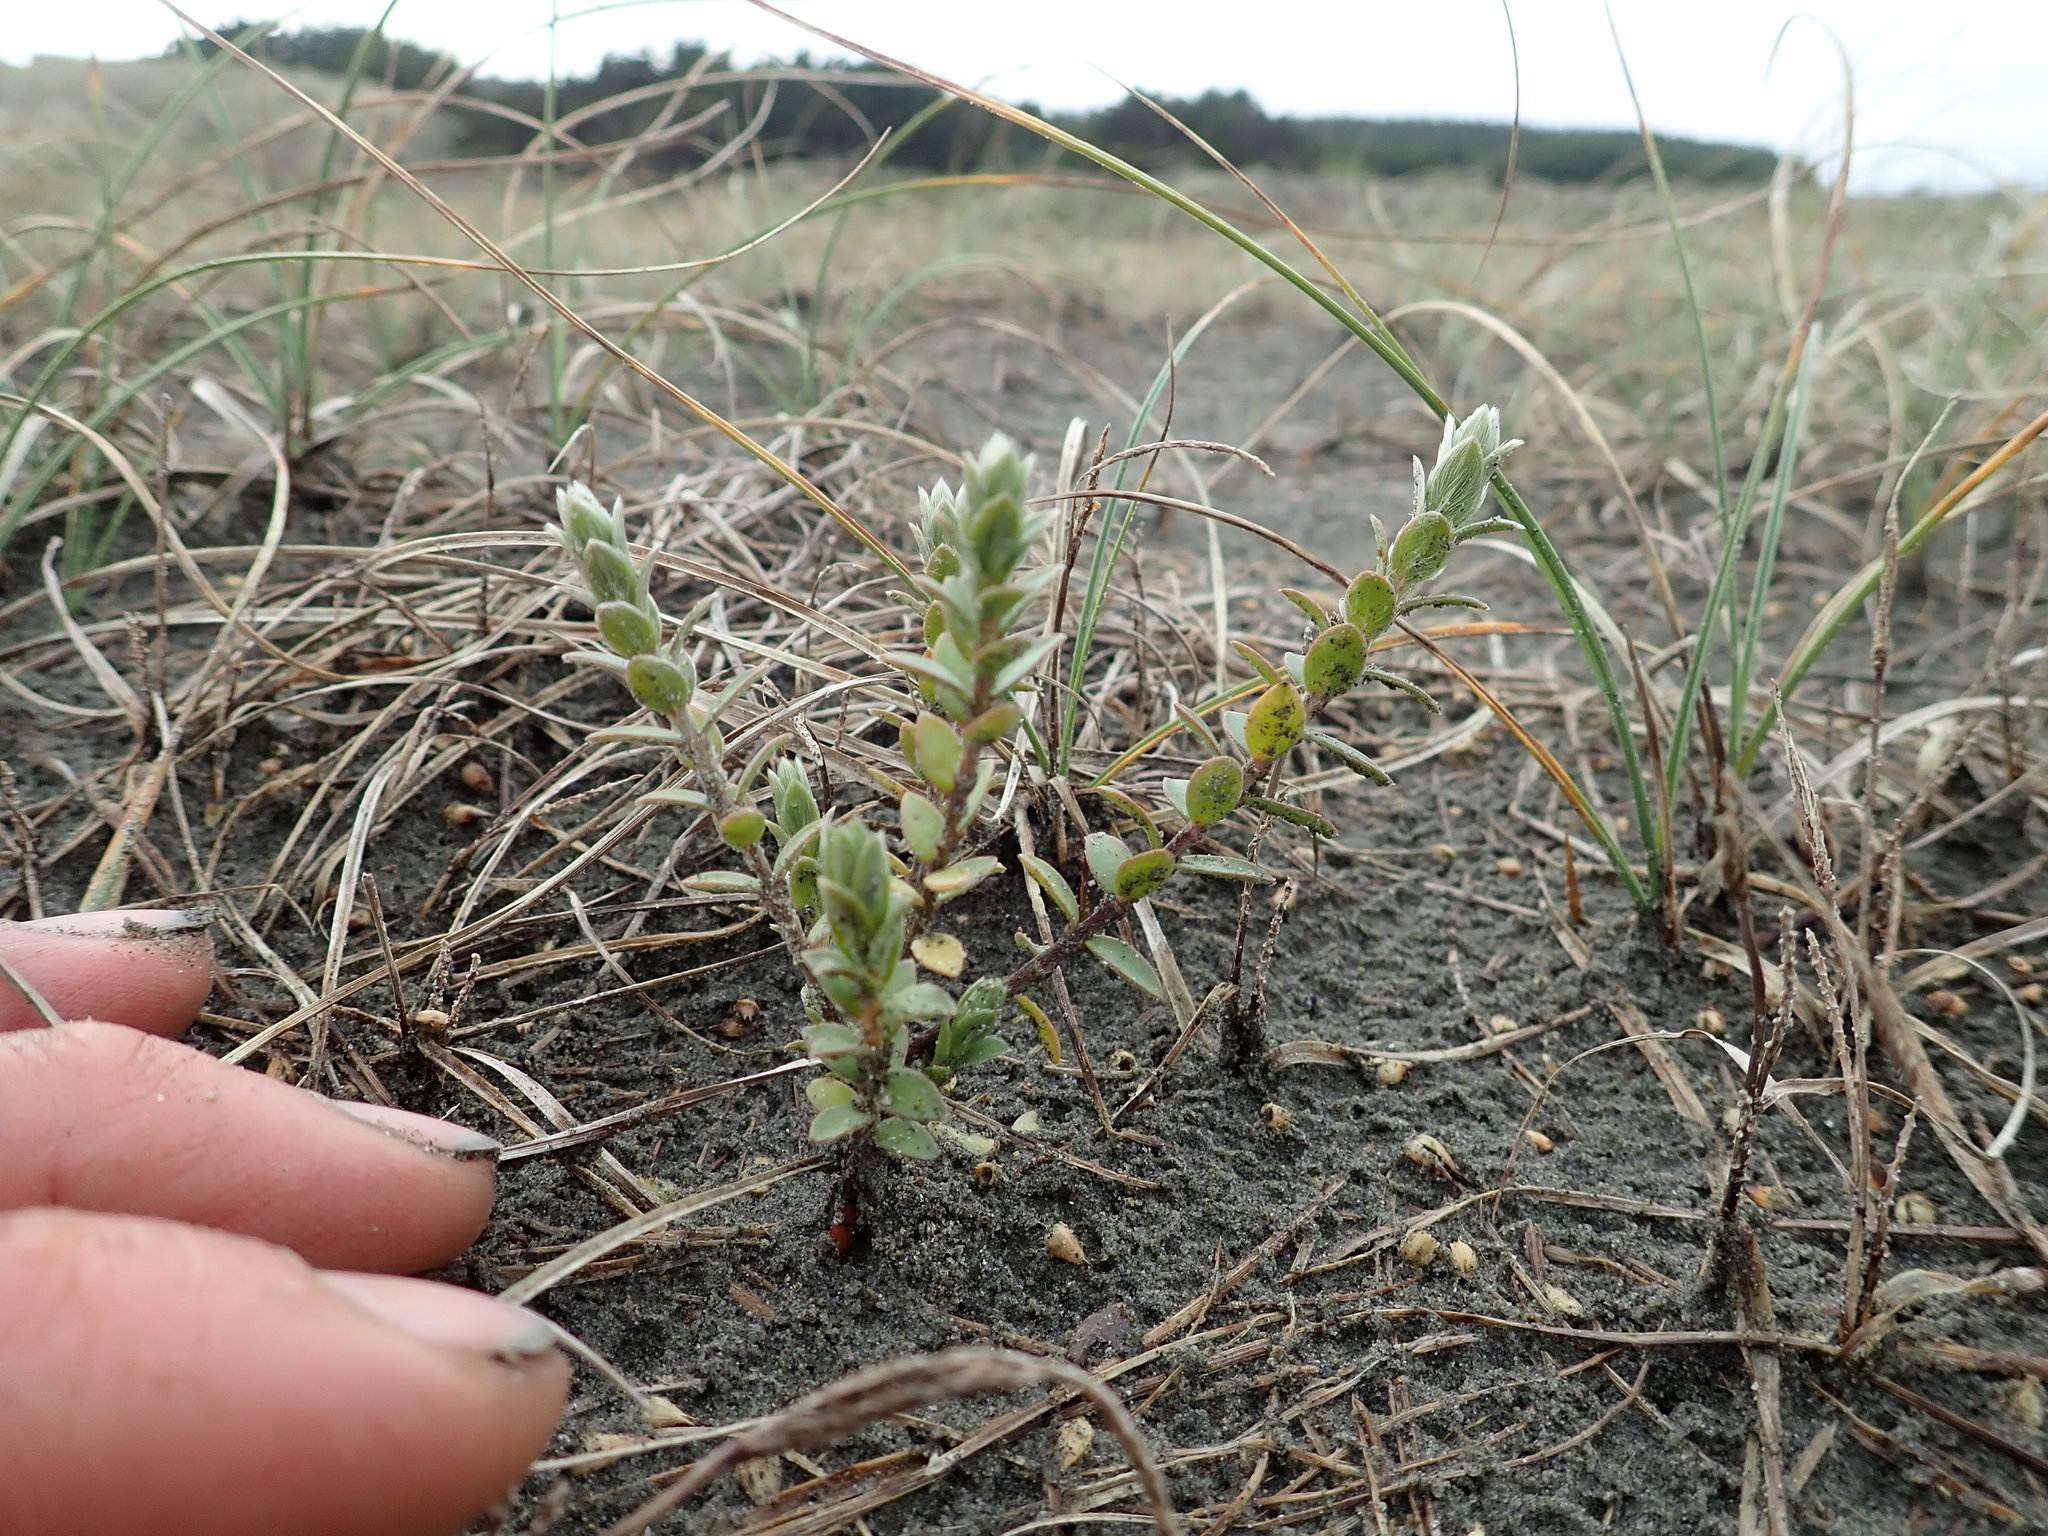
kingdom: Plantae
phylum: Tracheophyta
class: Magnoliopsida
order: Malvales
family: Thymelaeaceae
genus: Pimelea
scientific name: Pimelea villosa
